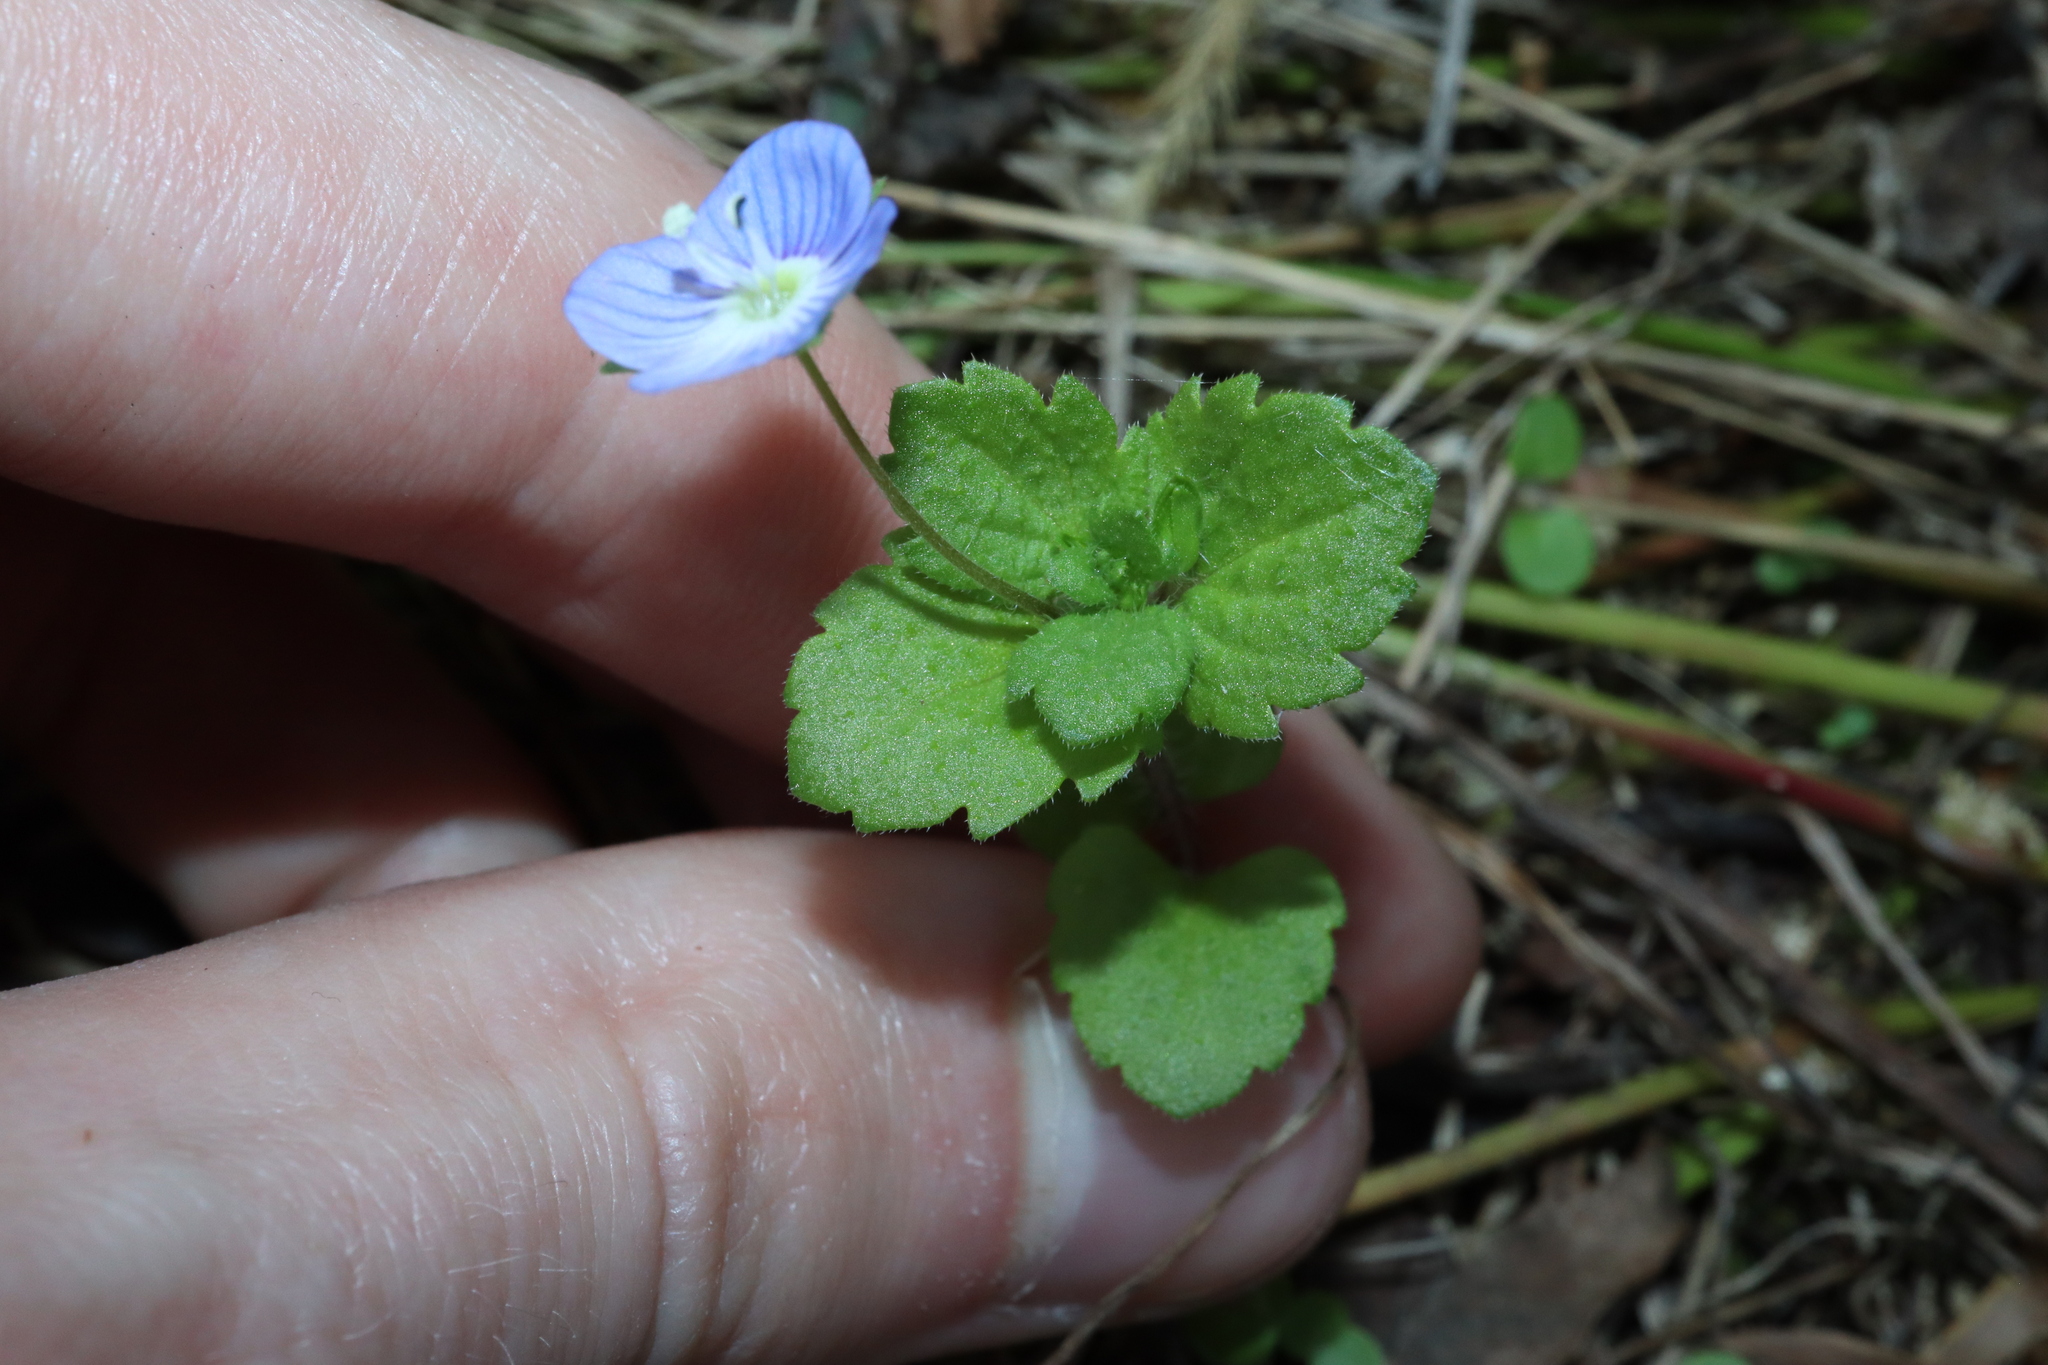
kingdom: Plantae
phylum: Tracheophyta
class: Magnoliopsida
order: Lamiales
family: Plantaginaceae
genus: Veronica
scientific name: Veronica persica
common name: Common field-speedwell
